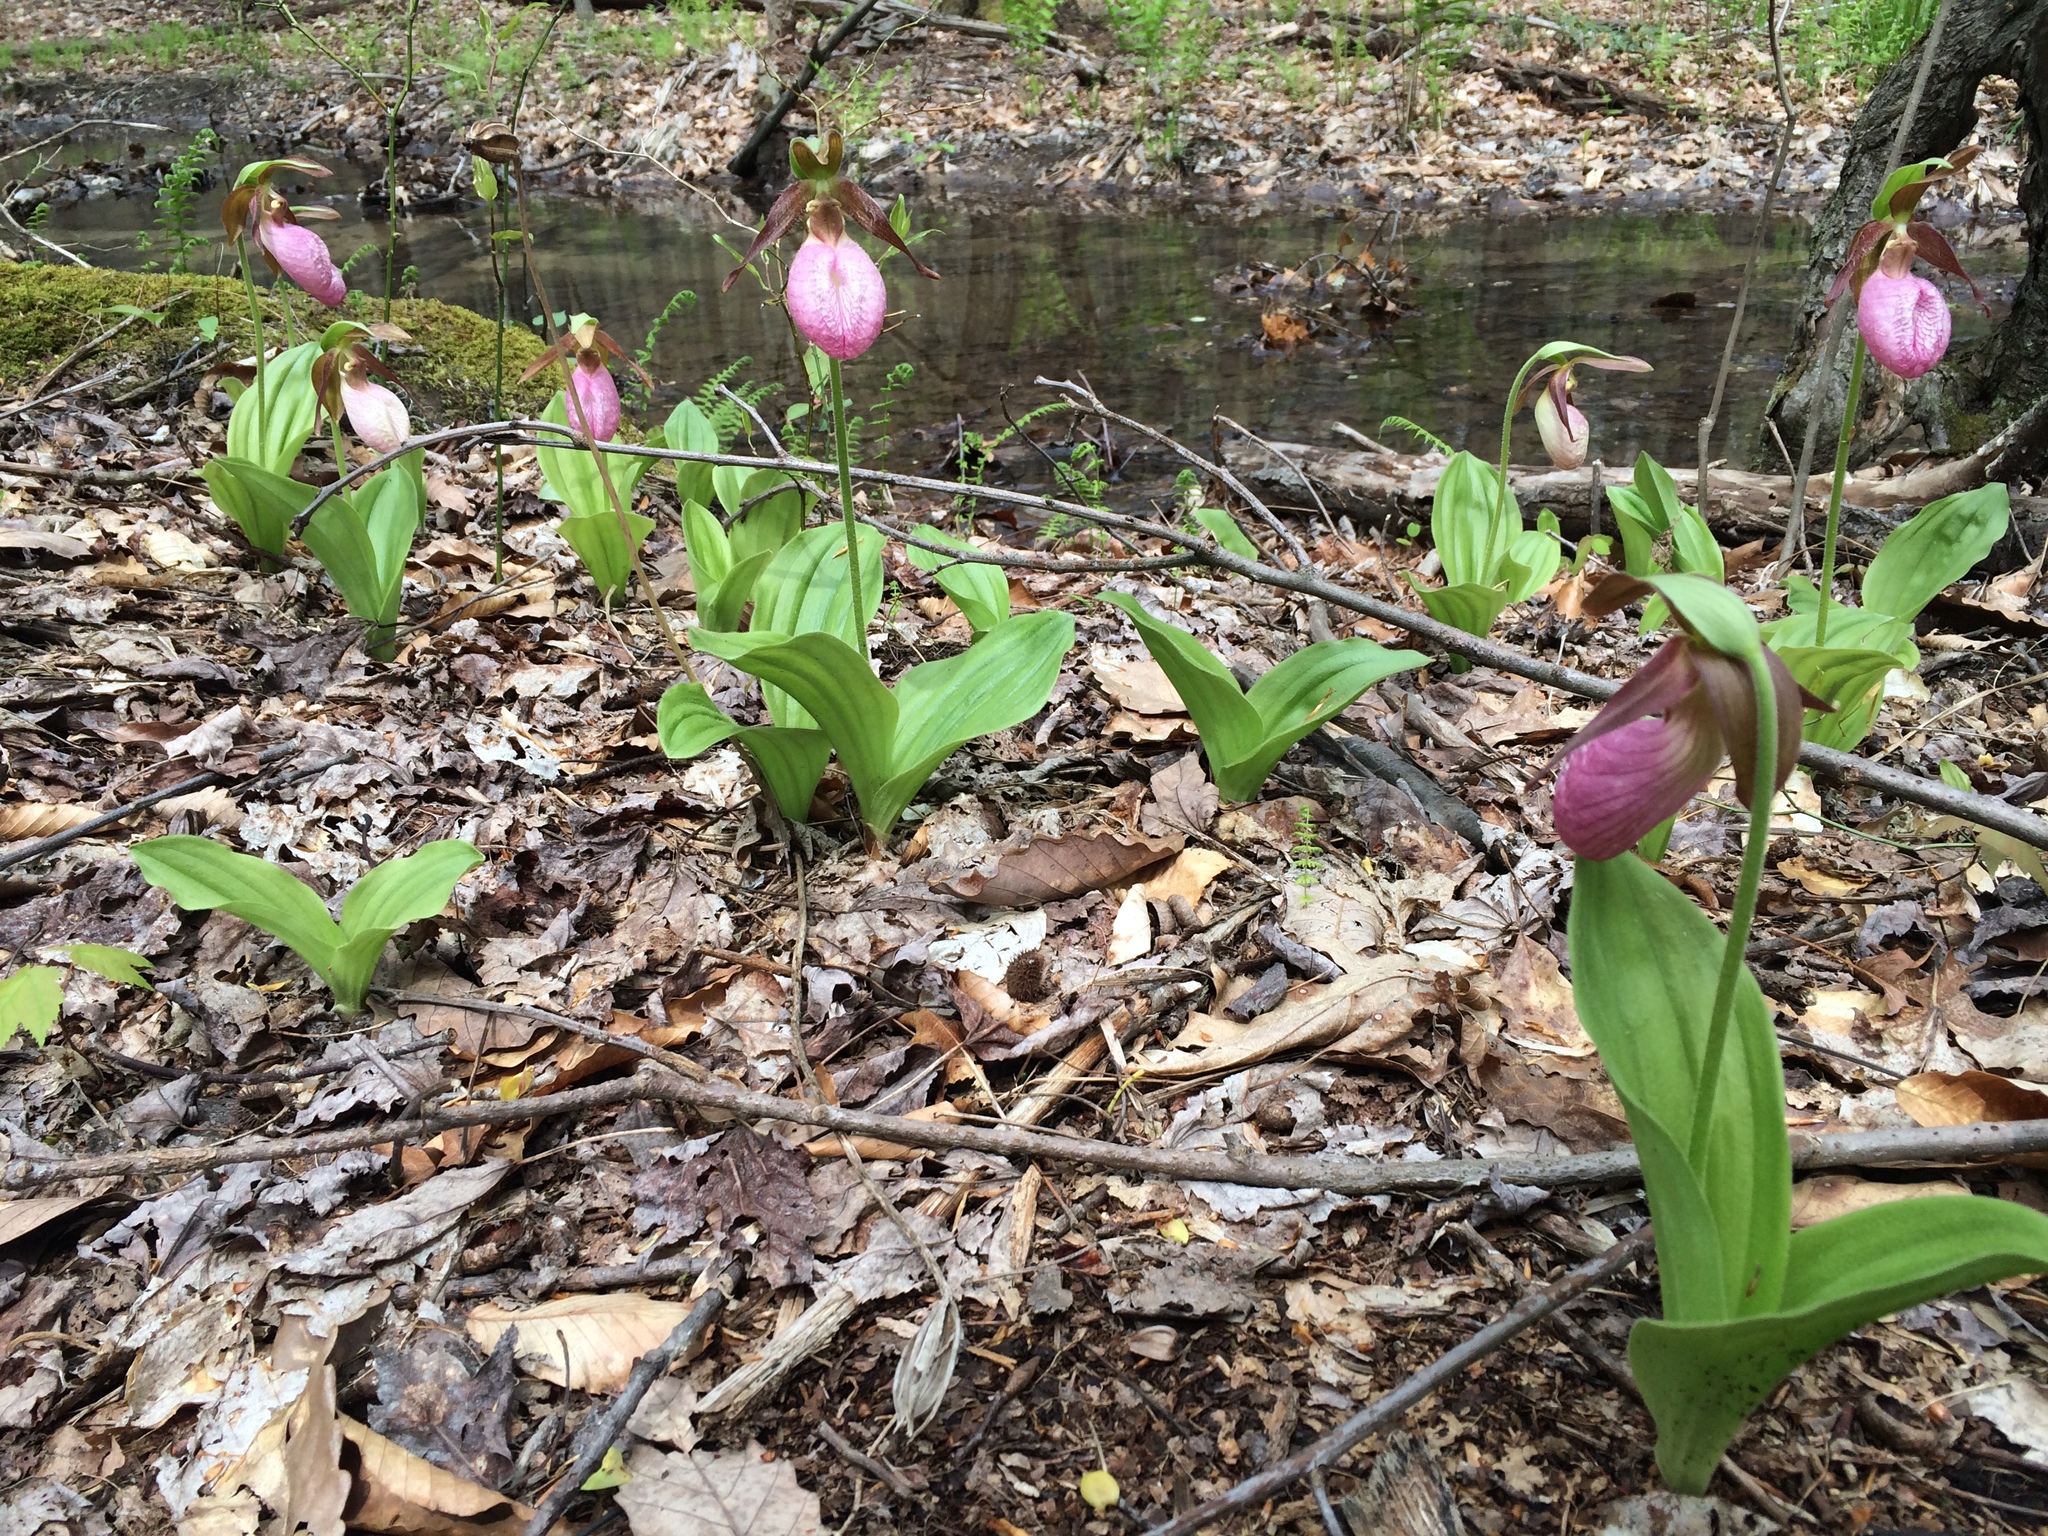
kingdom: Plantae
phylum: Tracheophyta
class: Liliopsida
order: Asparagales
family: Orchidaceae
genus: Cypripedium
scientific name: Cypripedium acaule
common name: Pink lady's-slipper
